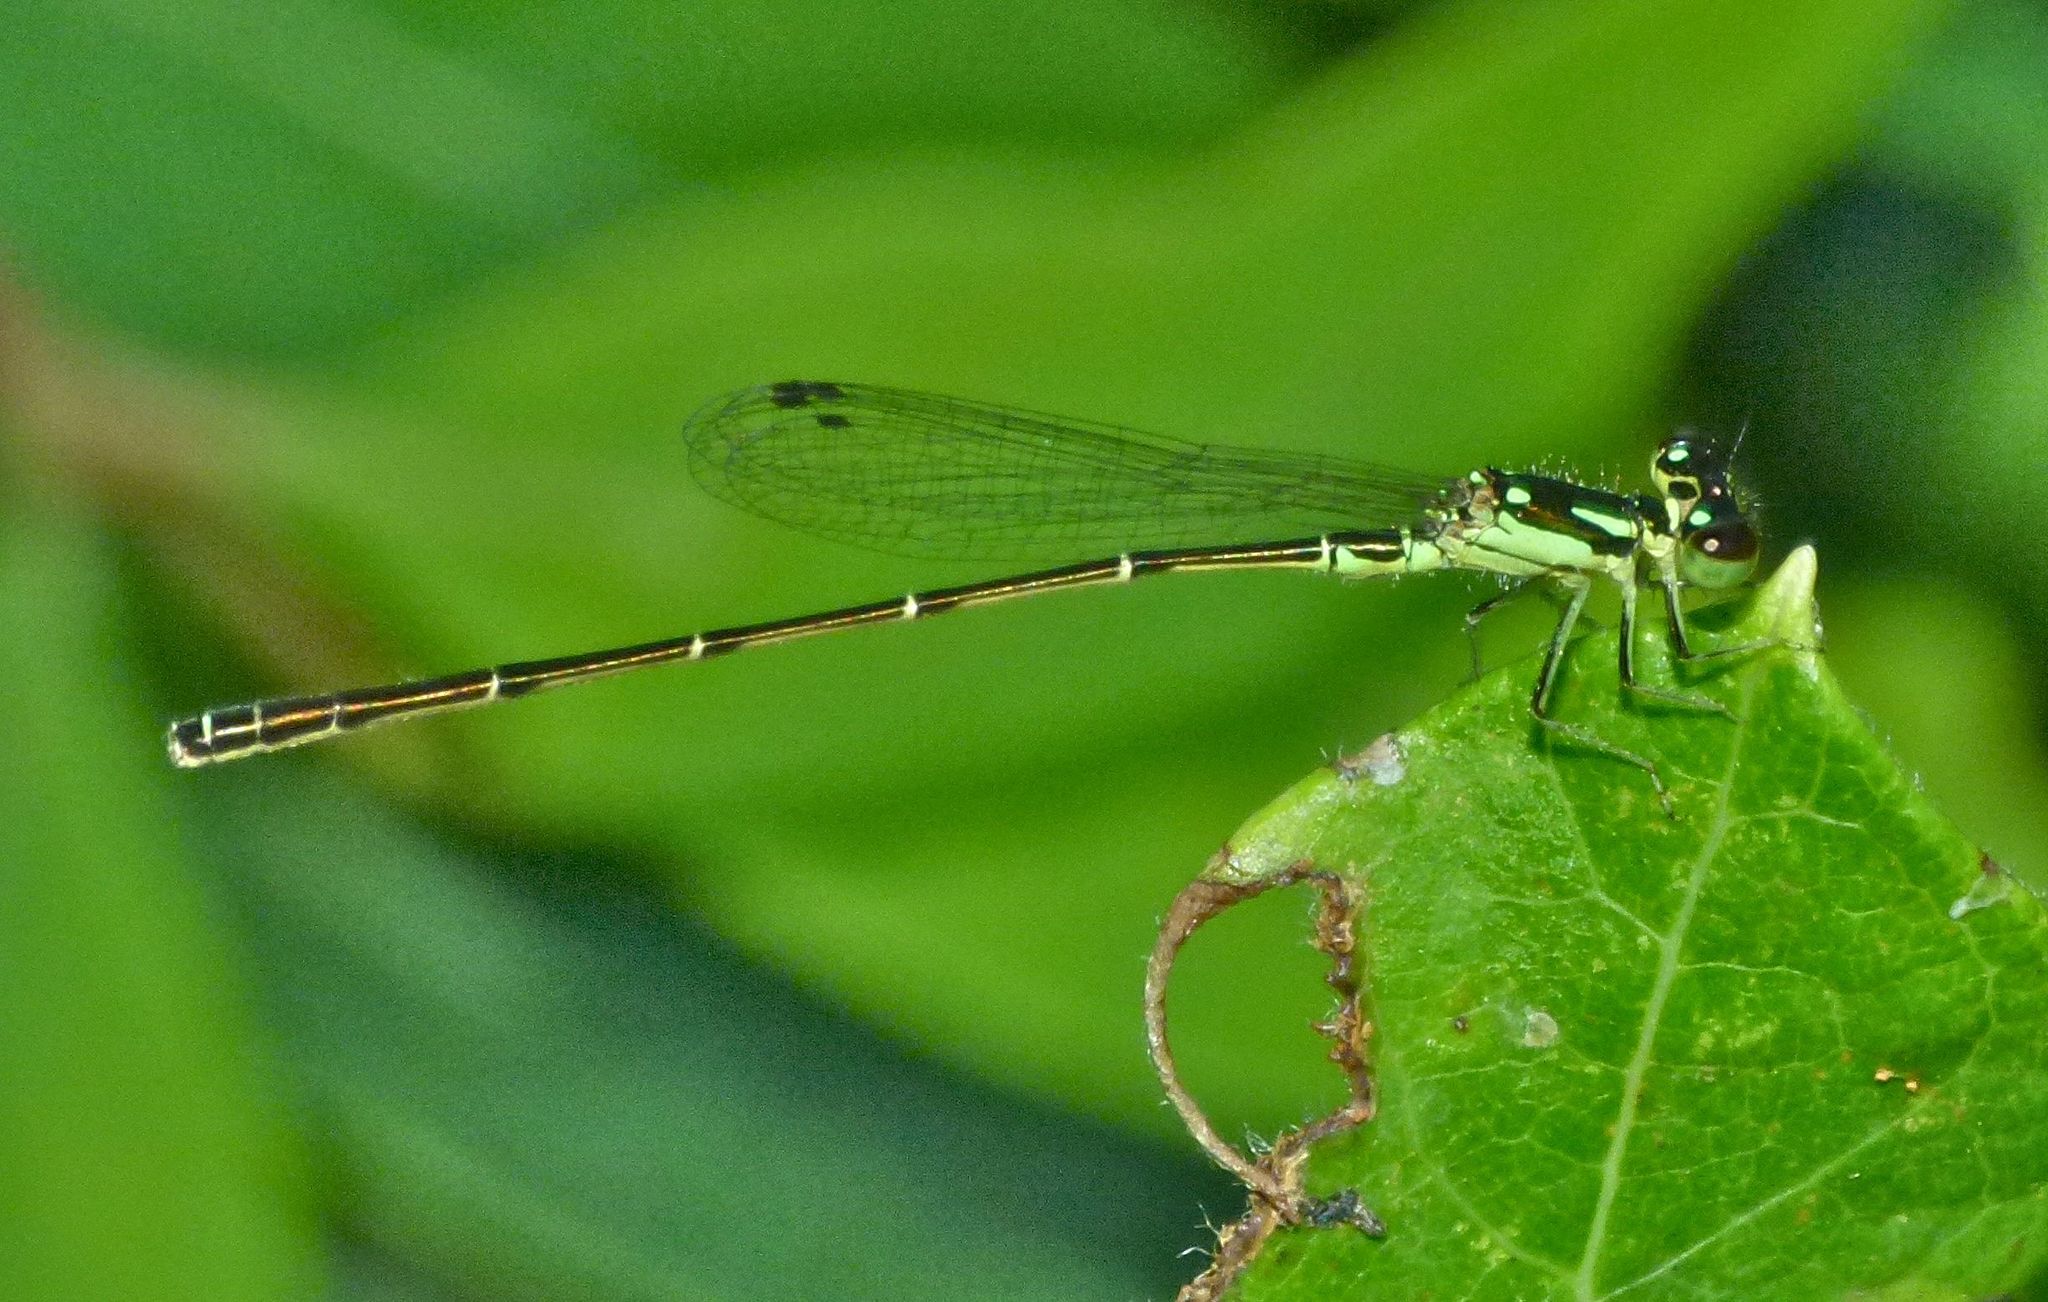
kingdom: Animalia
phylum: Arthropoda
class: Insecta
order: Odonata
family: Coenagrionidae
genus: Ischnura
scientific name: Ischnura posita
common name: Fragile forktail
